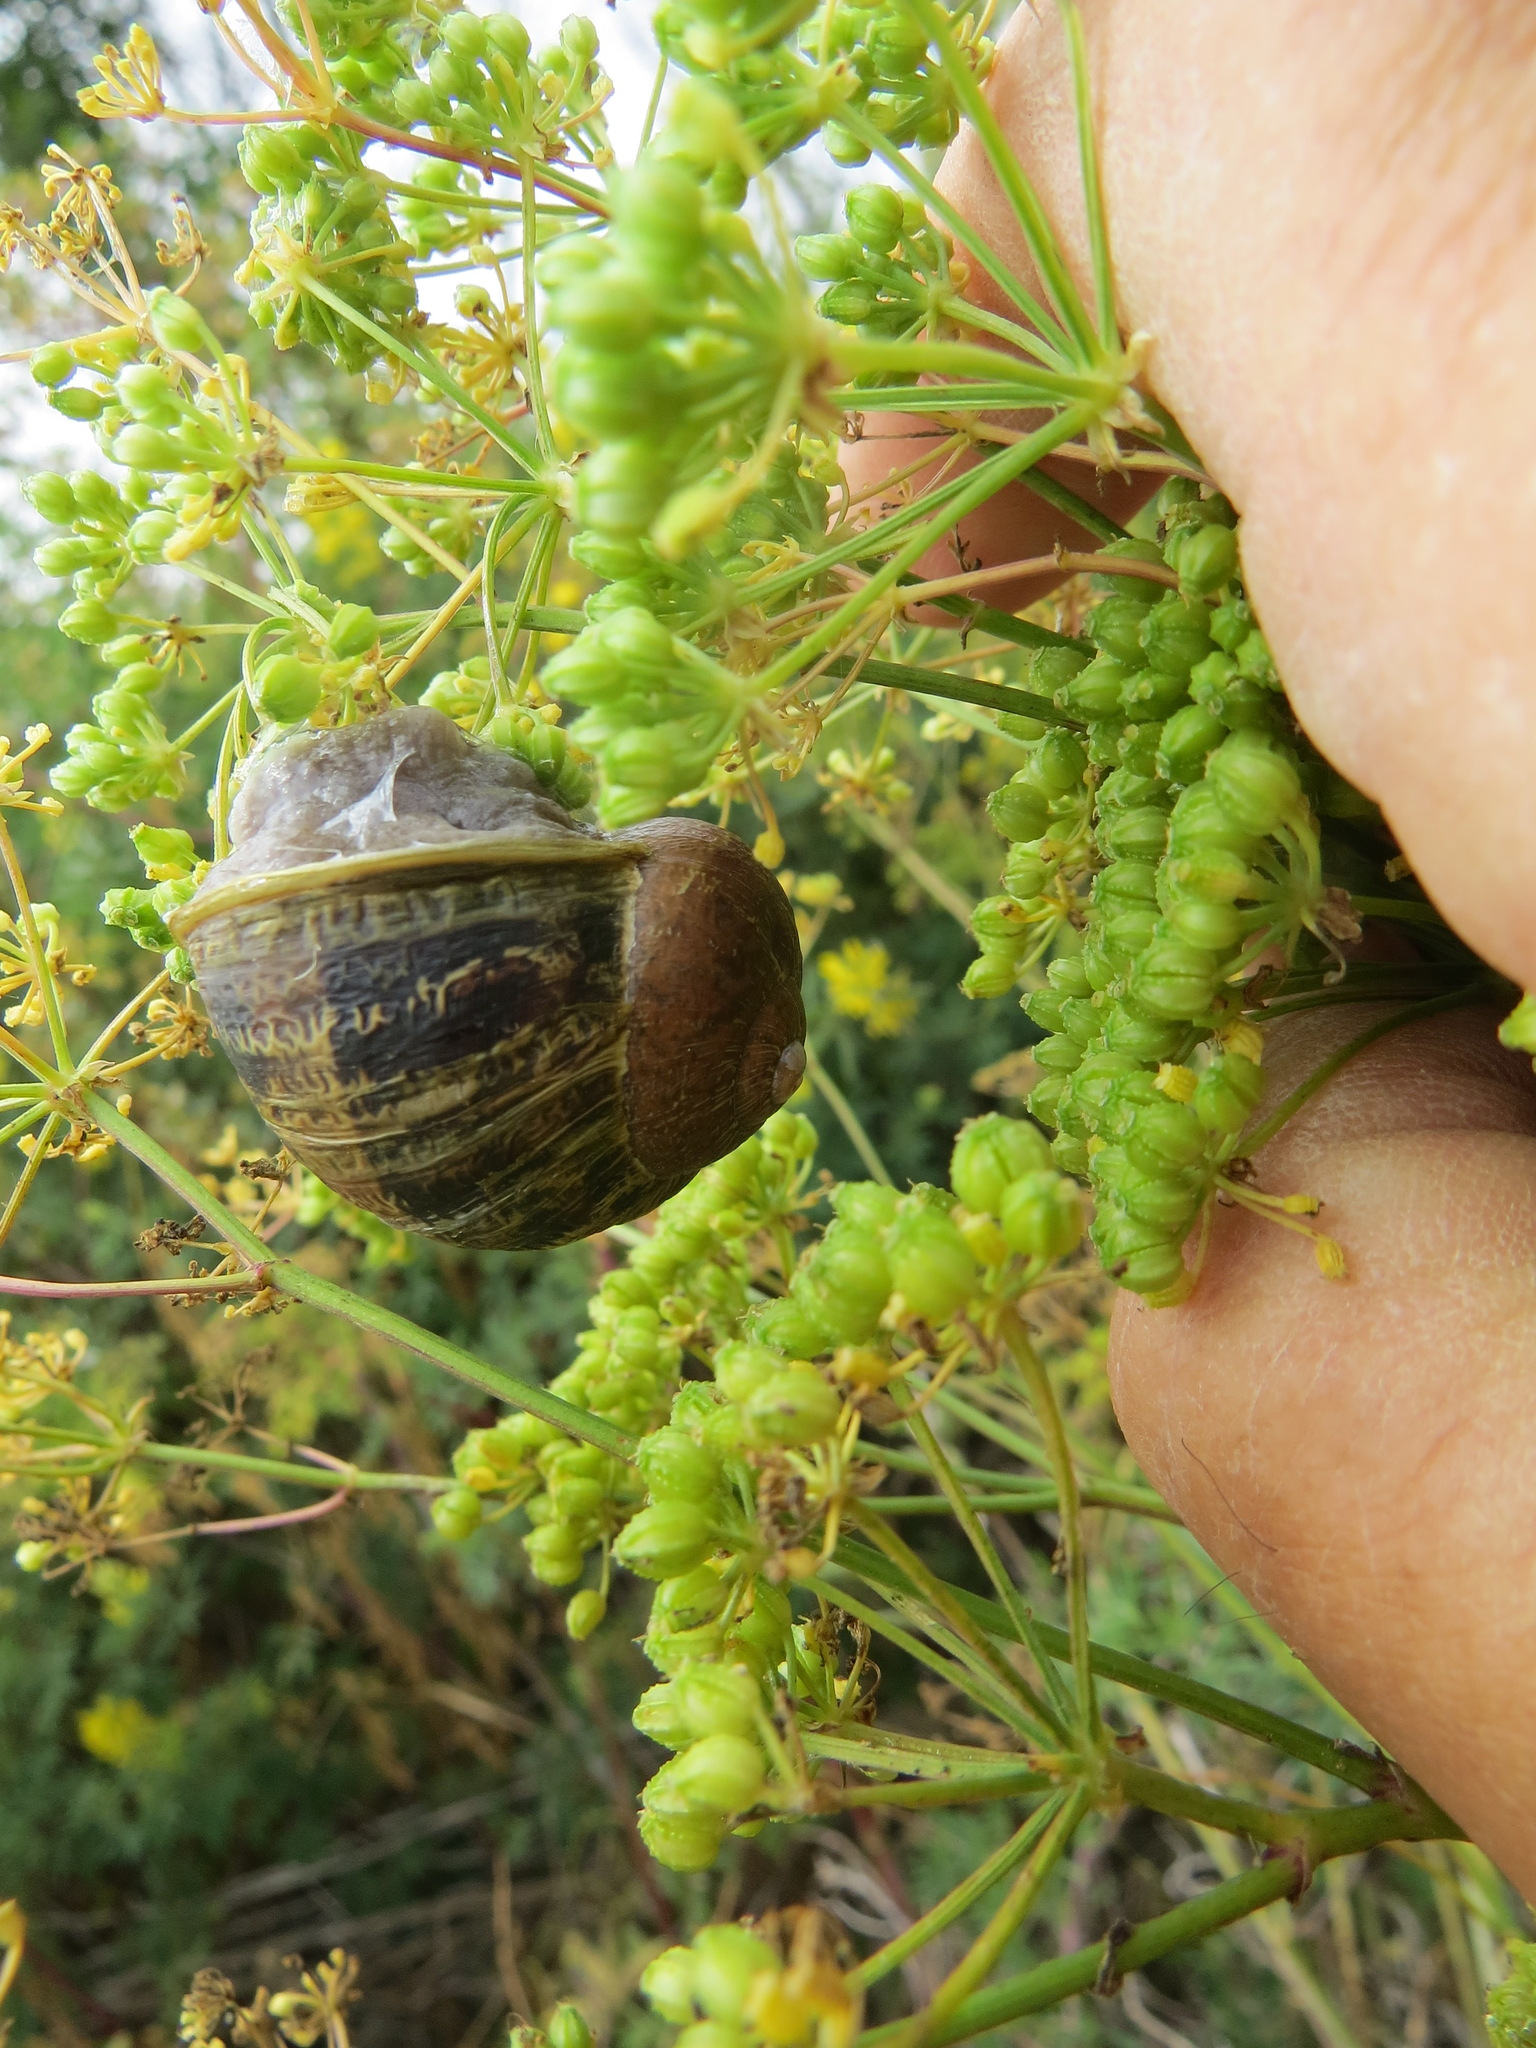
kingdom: Animalia
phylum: Mollusca
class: Gastropoda
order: Stylommatophora
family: Helicidae
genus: Cornu
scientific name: Cornu aspersum
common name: Brown garden snail
